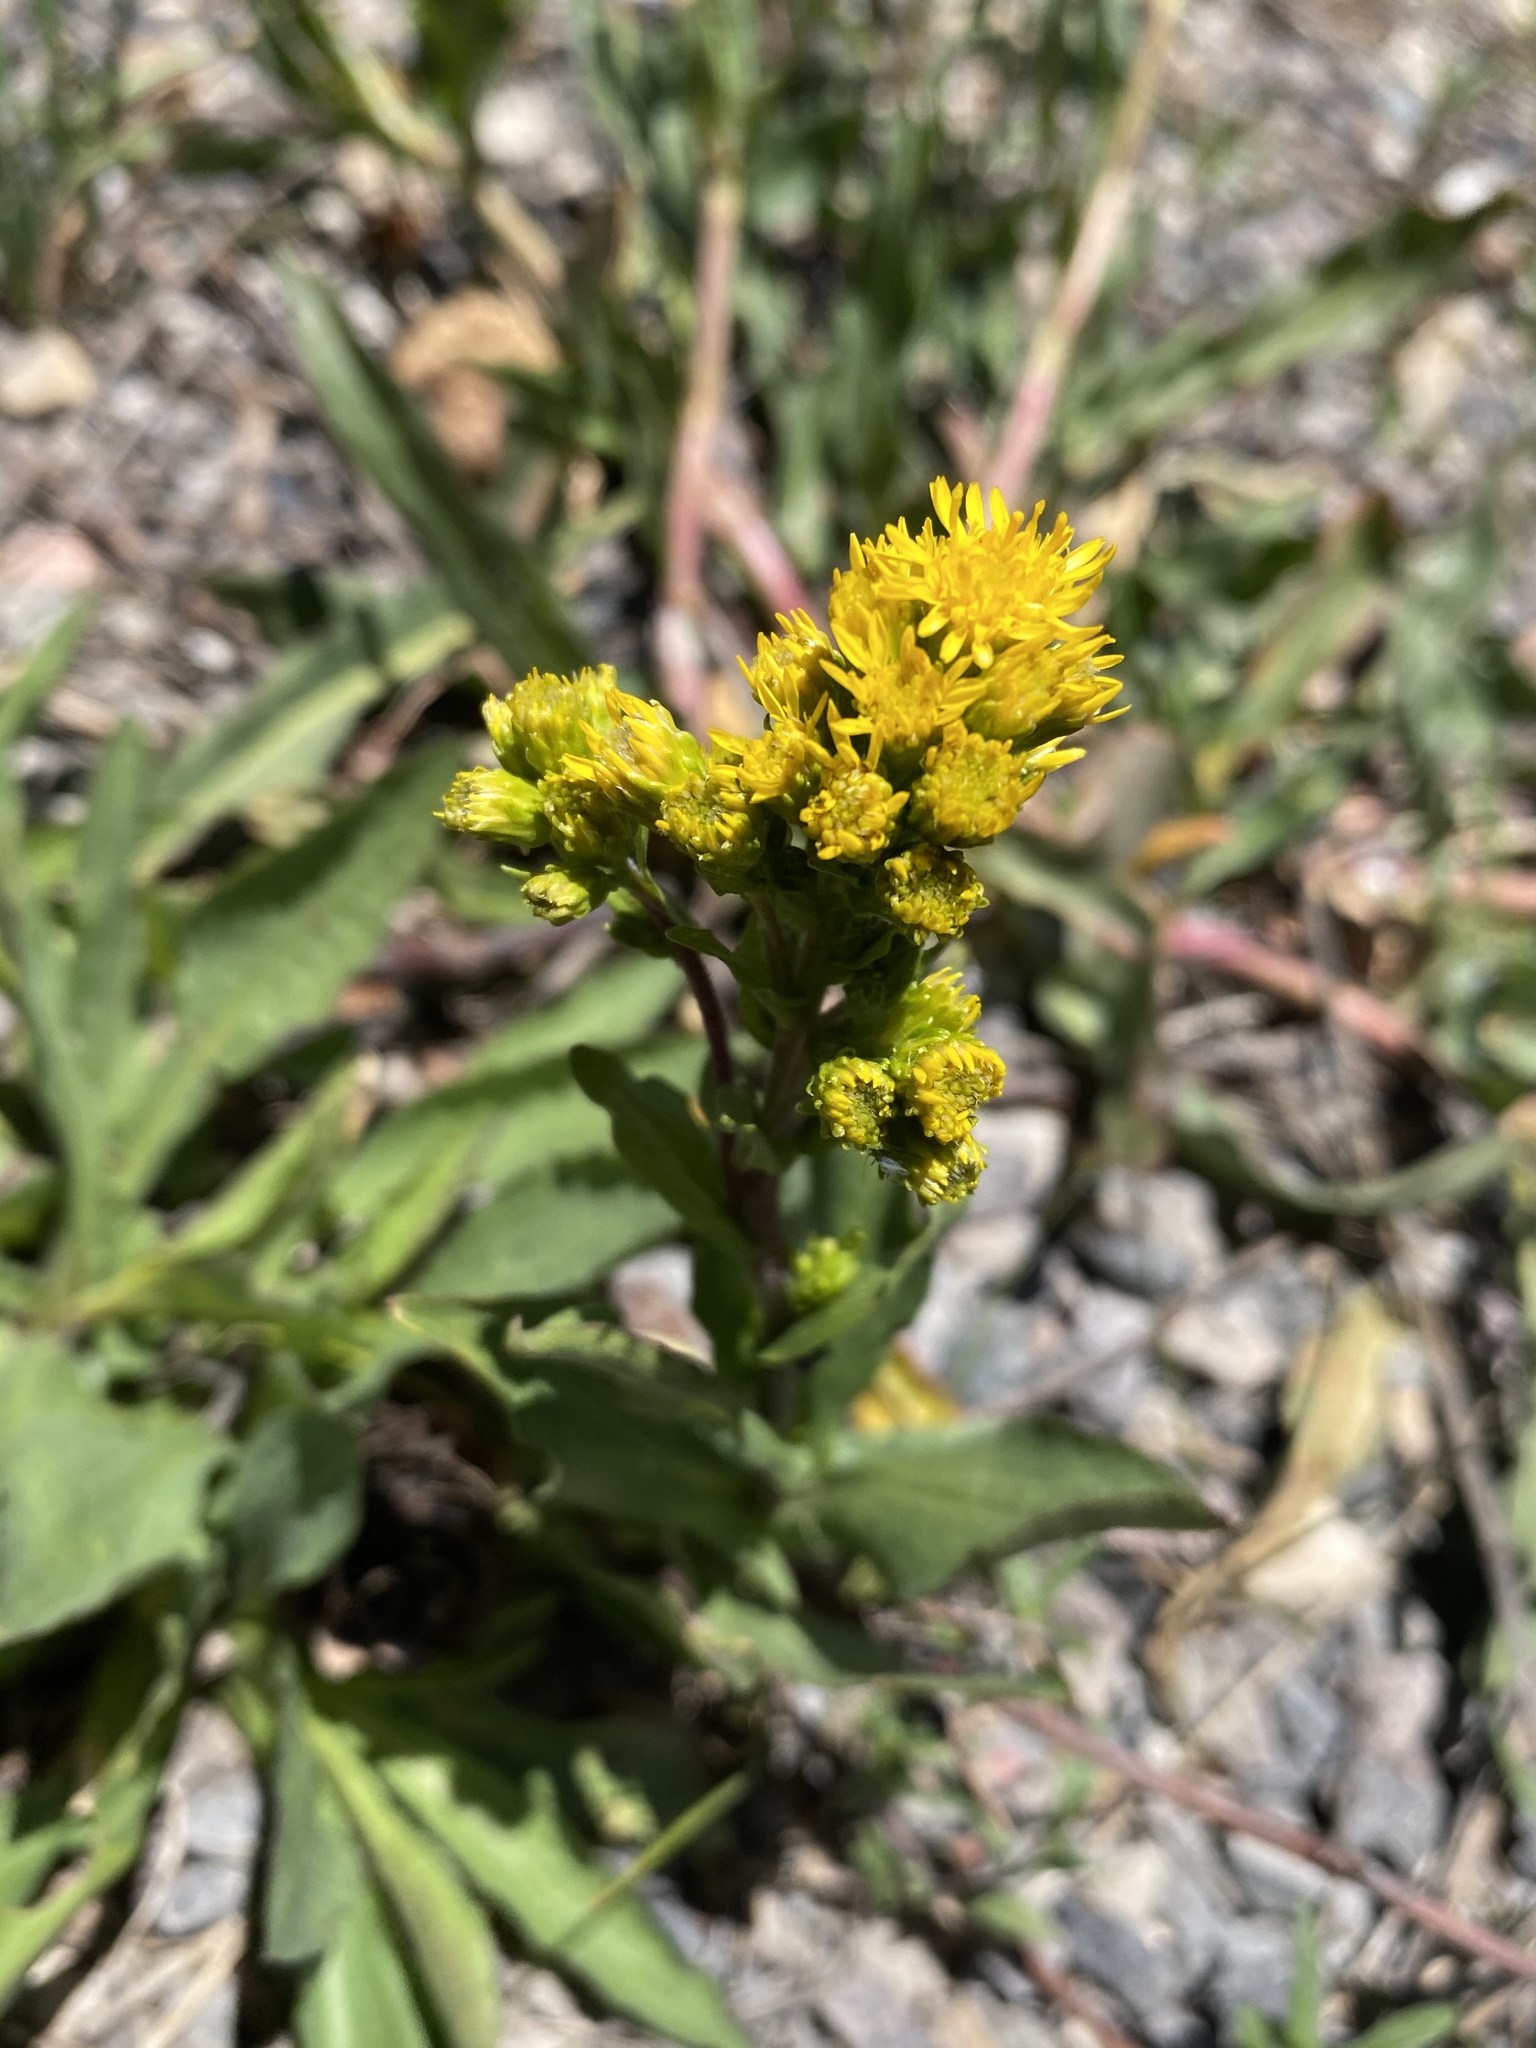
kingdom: Plantae
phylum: Tracheophyta
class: Magnoliopsida
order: Asterales
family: Asteraceae
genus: Solidago
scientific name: Solidago multiradiata
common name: Northern goldenrod
